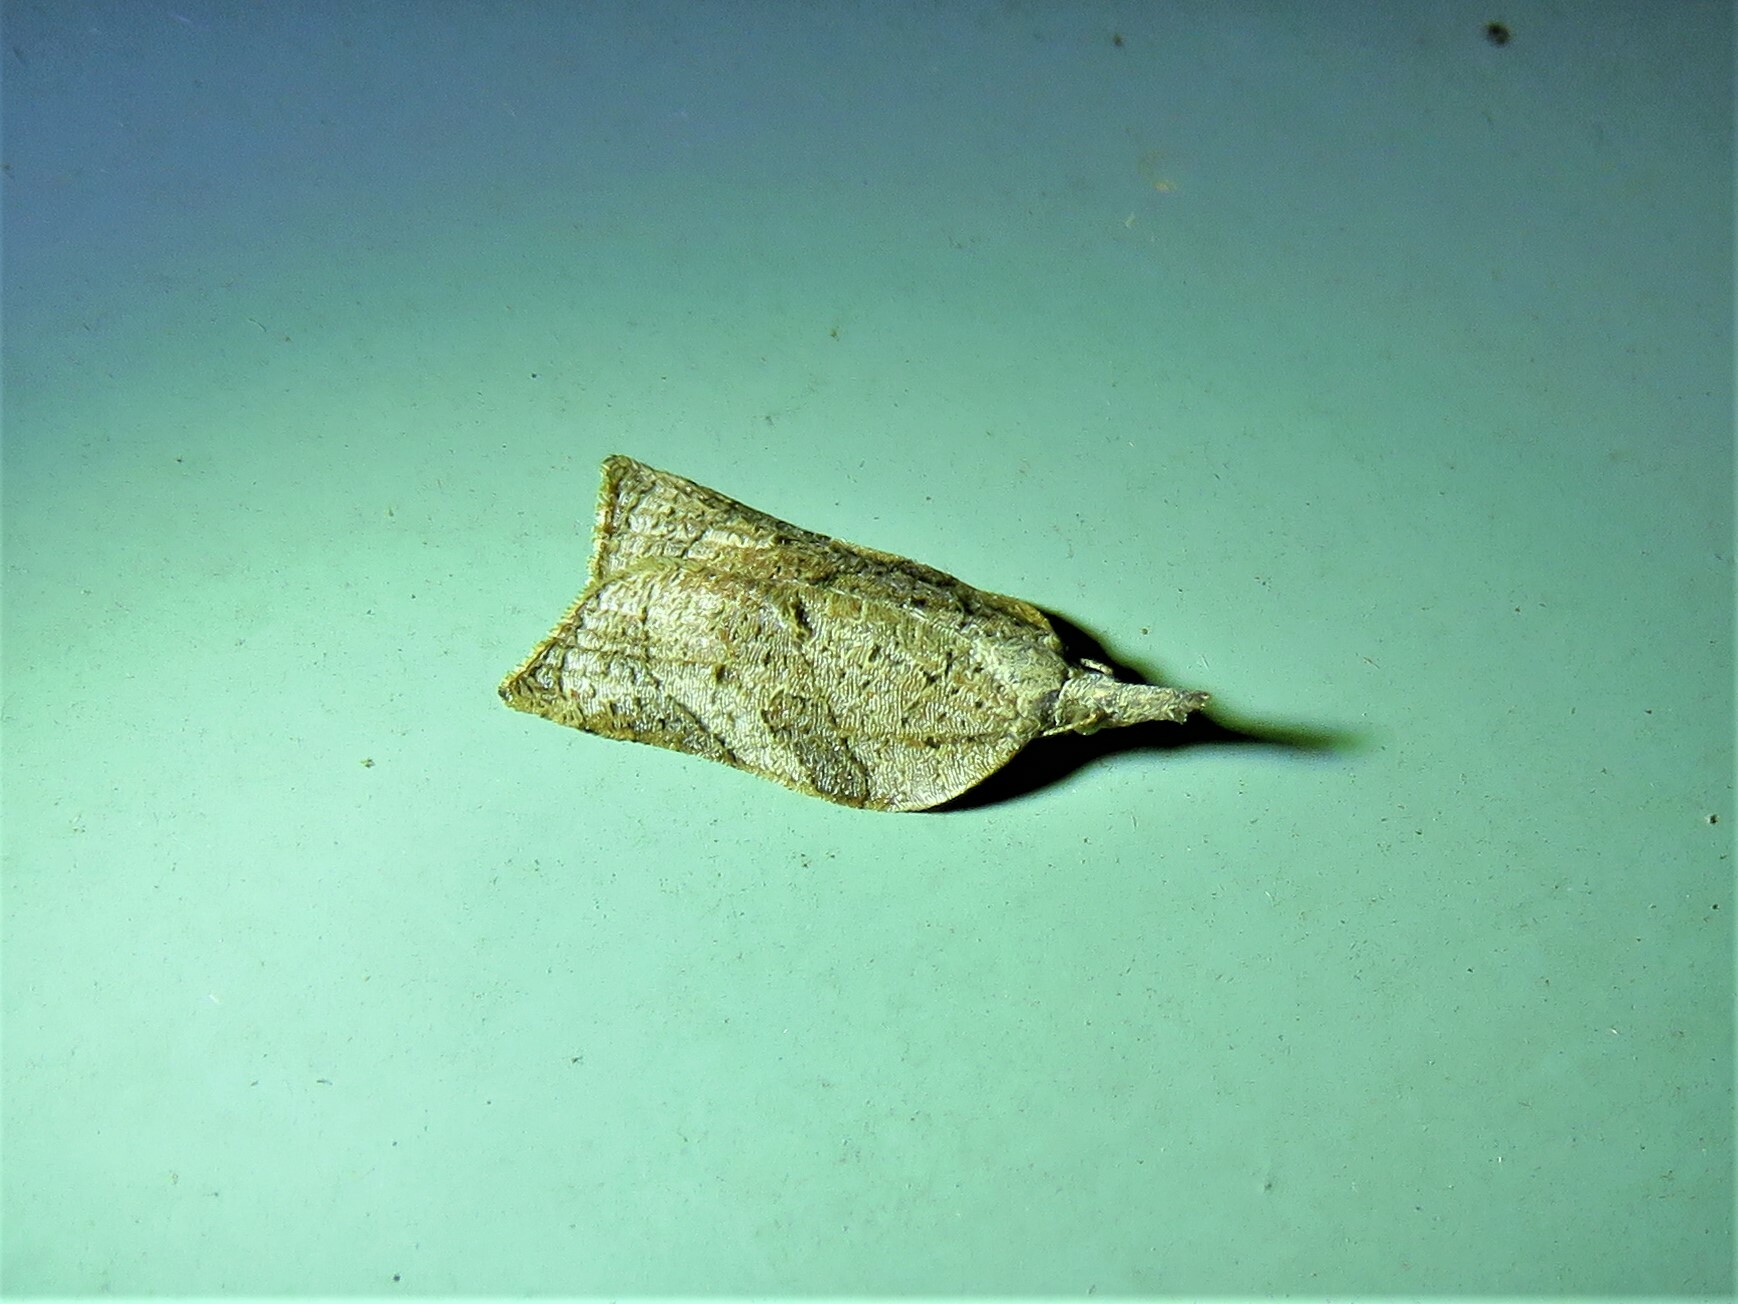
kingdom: Animalia
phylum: Arthropoda
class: Insecta
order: Lepidoptera
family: Tortricidae
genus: Platynota
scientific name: Platynota rostrana
